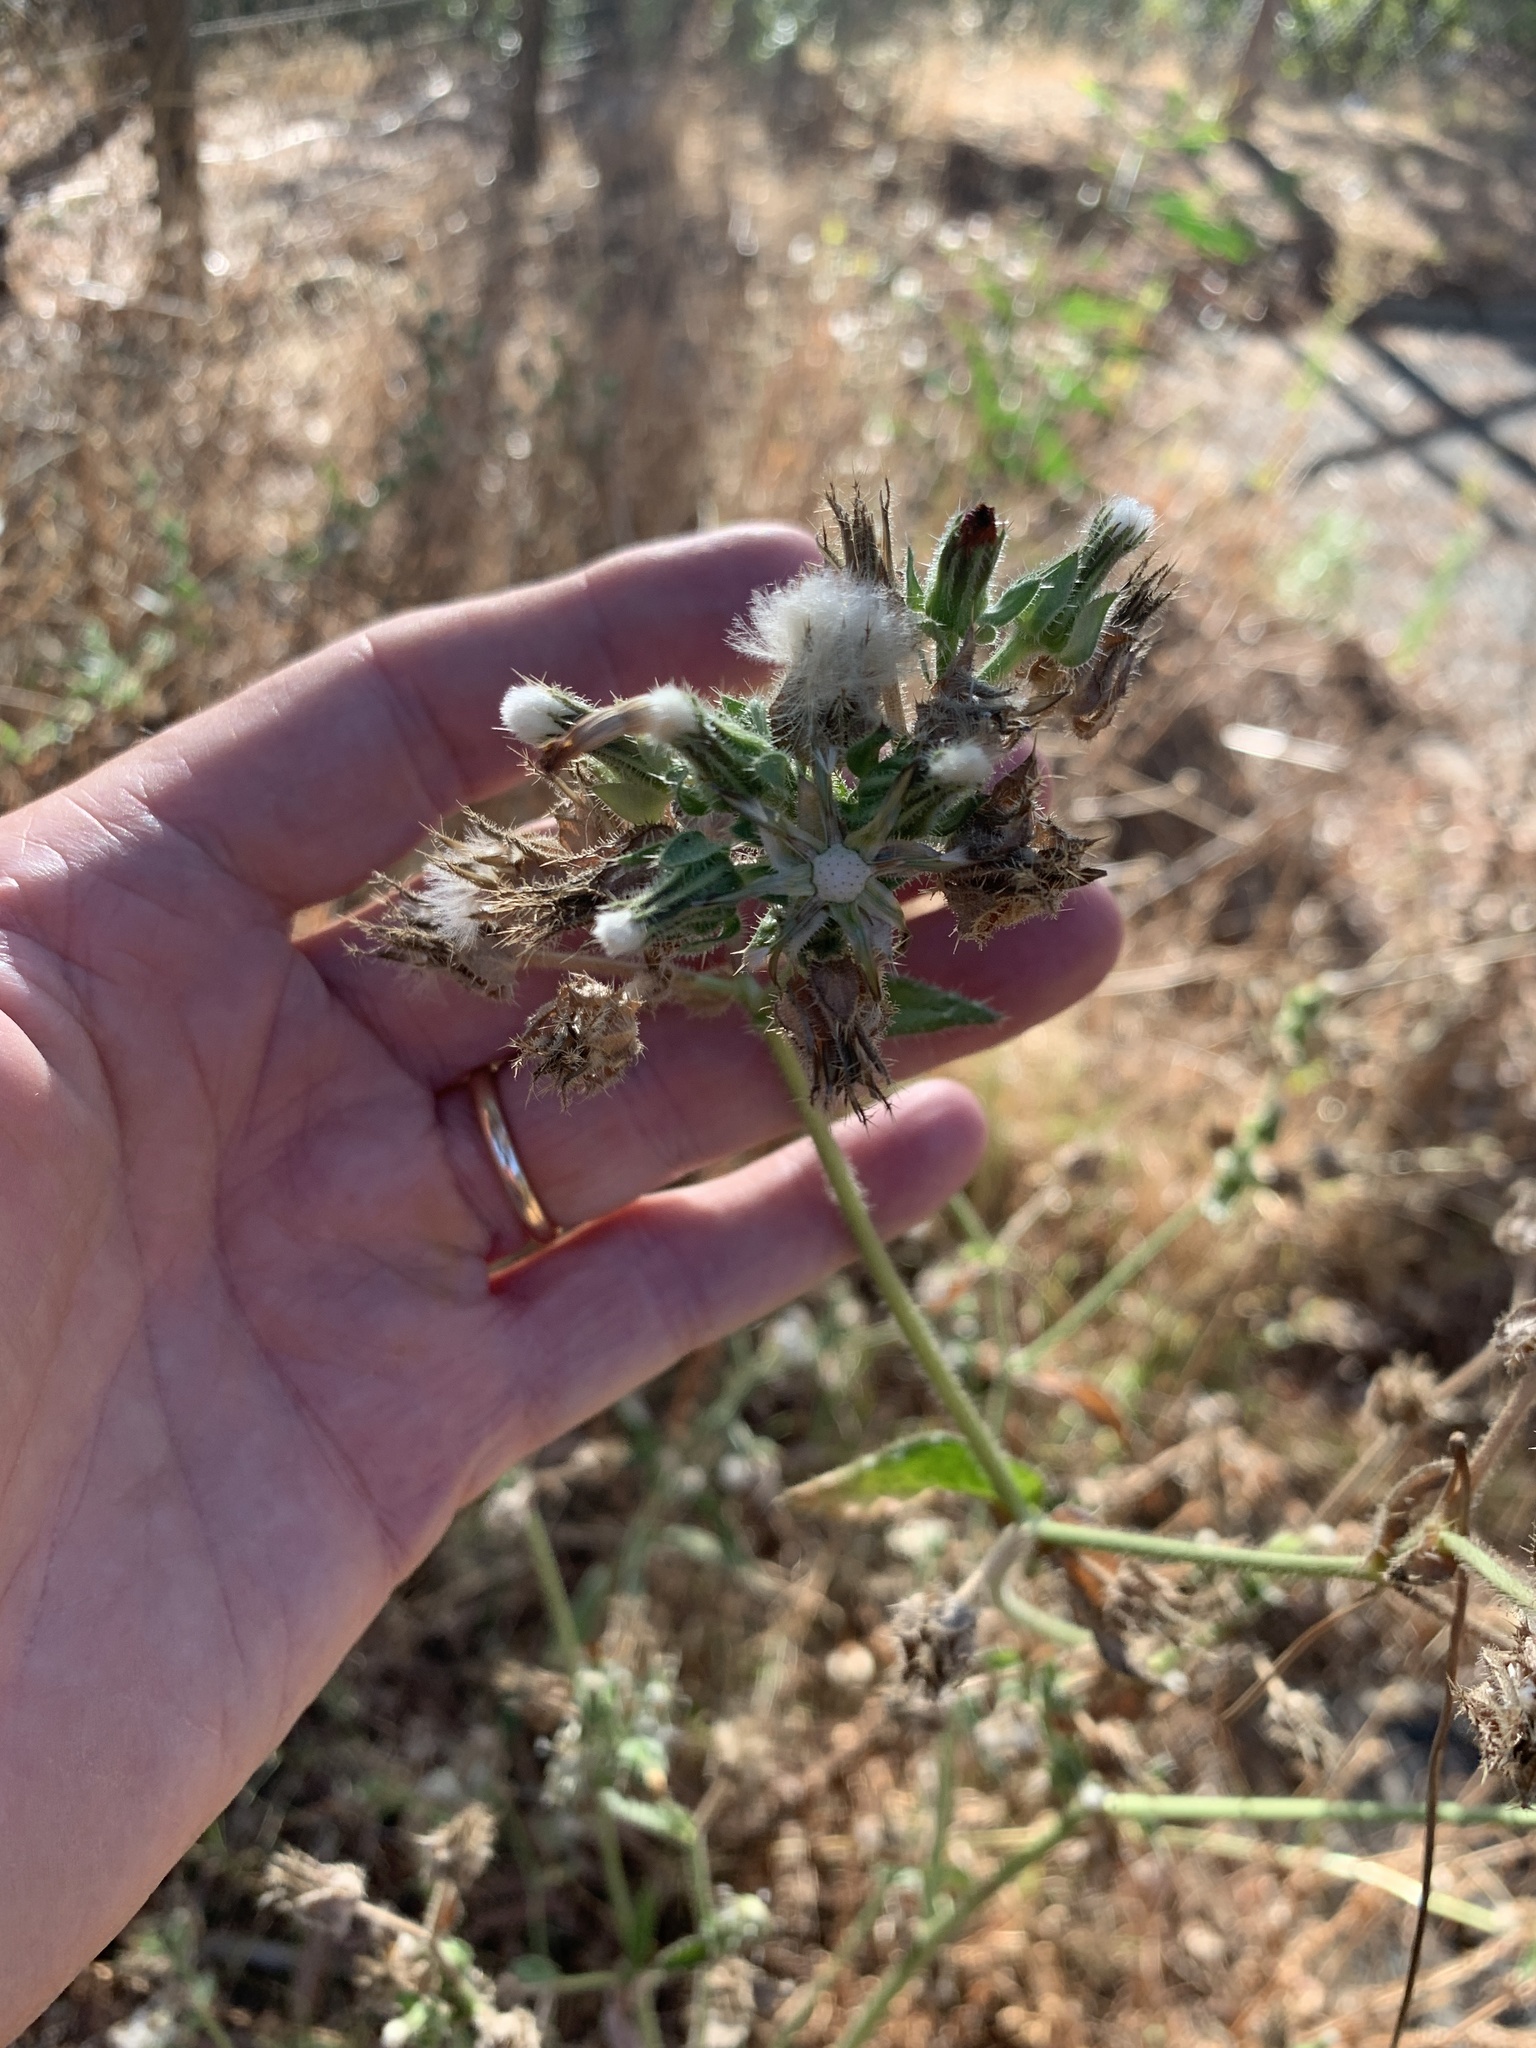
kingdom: Plantae
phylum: Tracheophyta
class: Magnoliopsida
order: Asterales
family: Asteraceae
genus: Helminthotheca
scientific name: Helminthotheca echioides
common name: Ox-tongue
